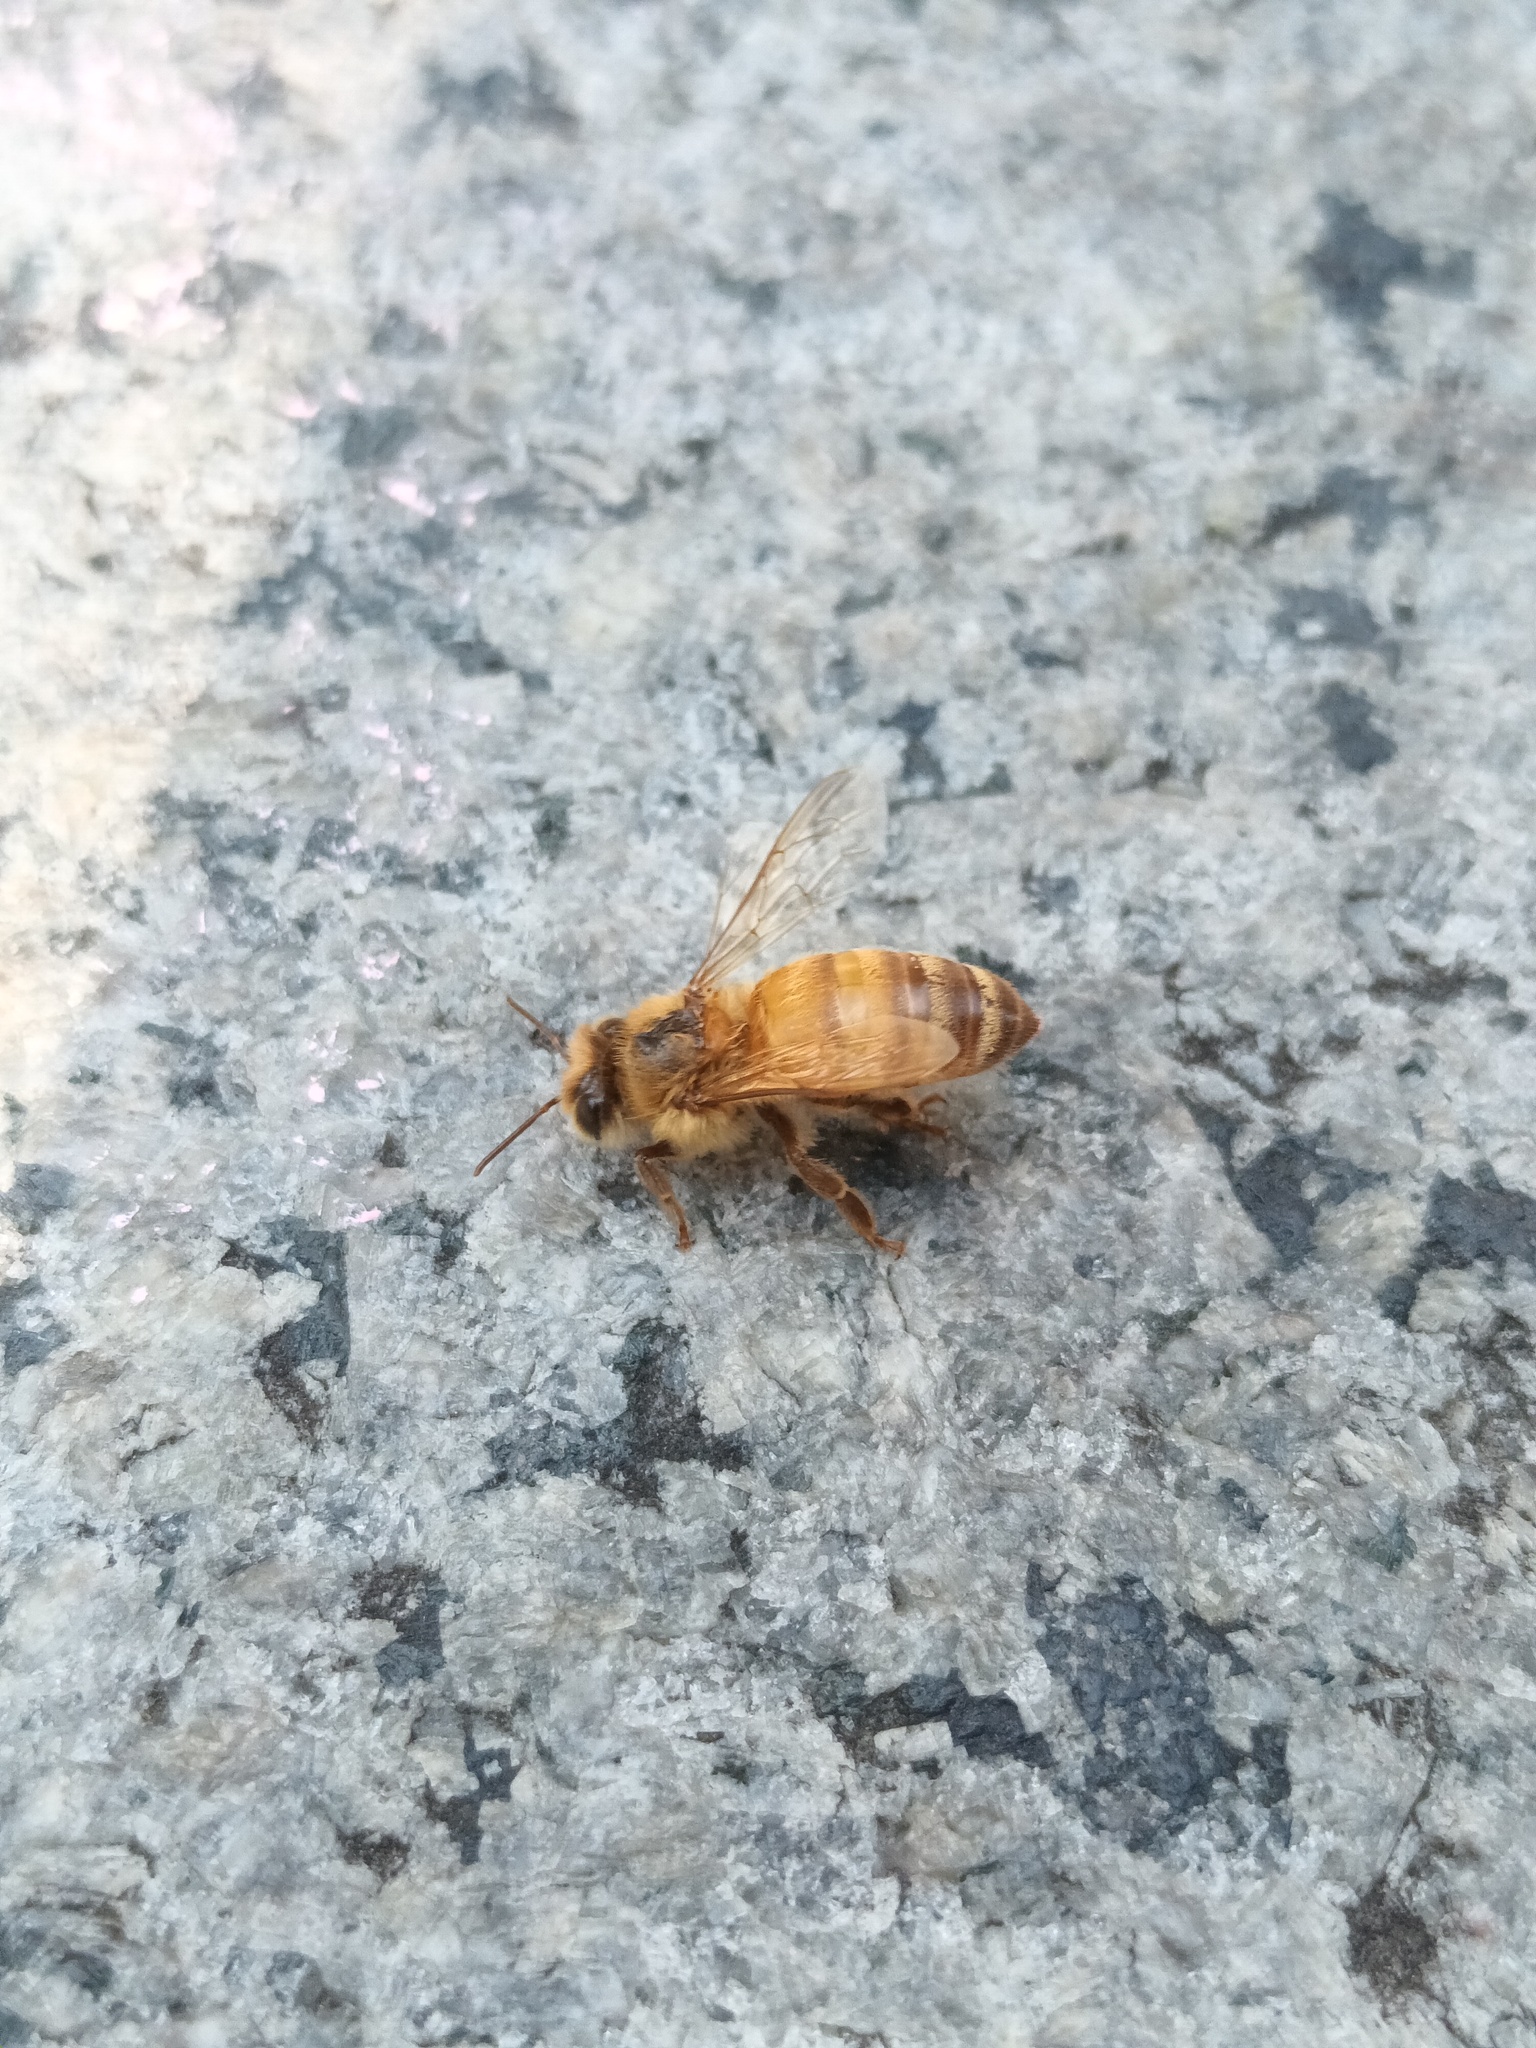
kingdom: Animalia
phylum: Arthropoda
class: Insecta
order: Hymenoptera
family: Apidae
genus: Apis
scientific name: Apis mellifera
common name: Honey bee
